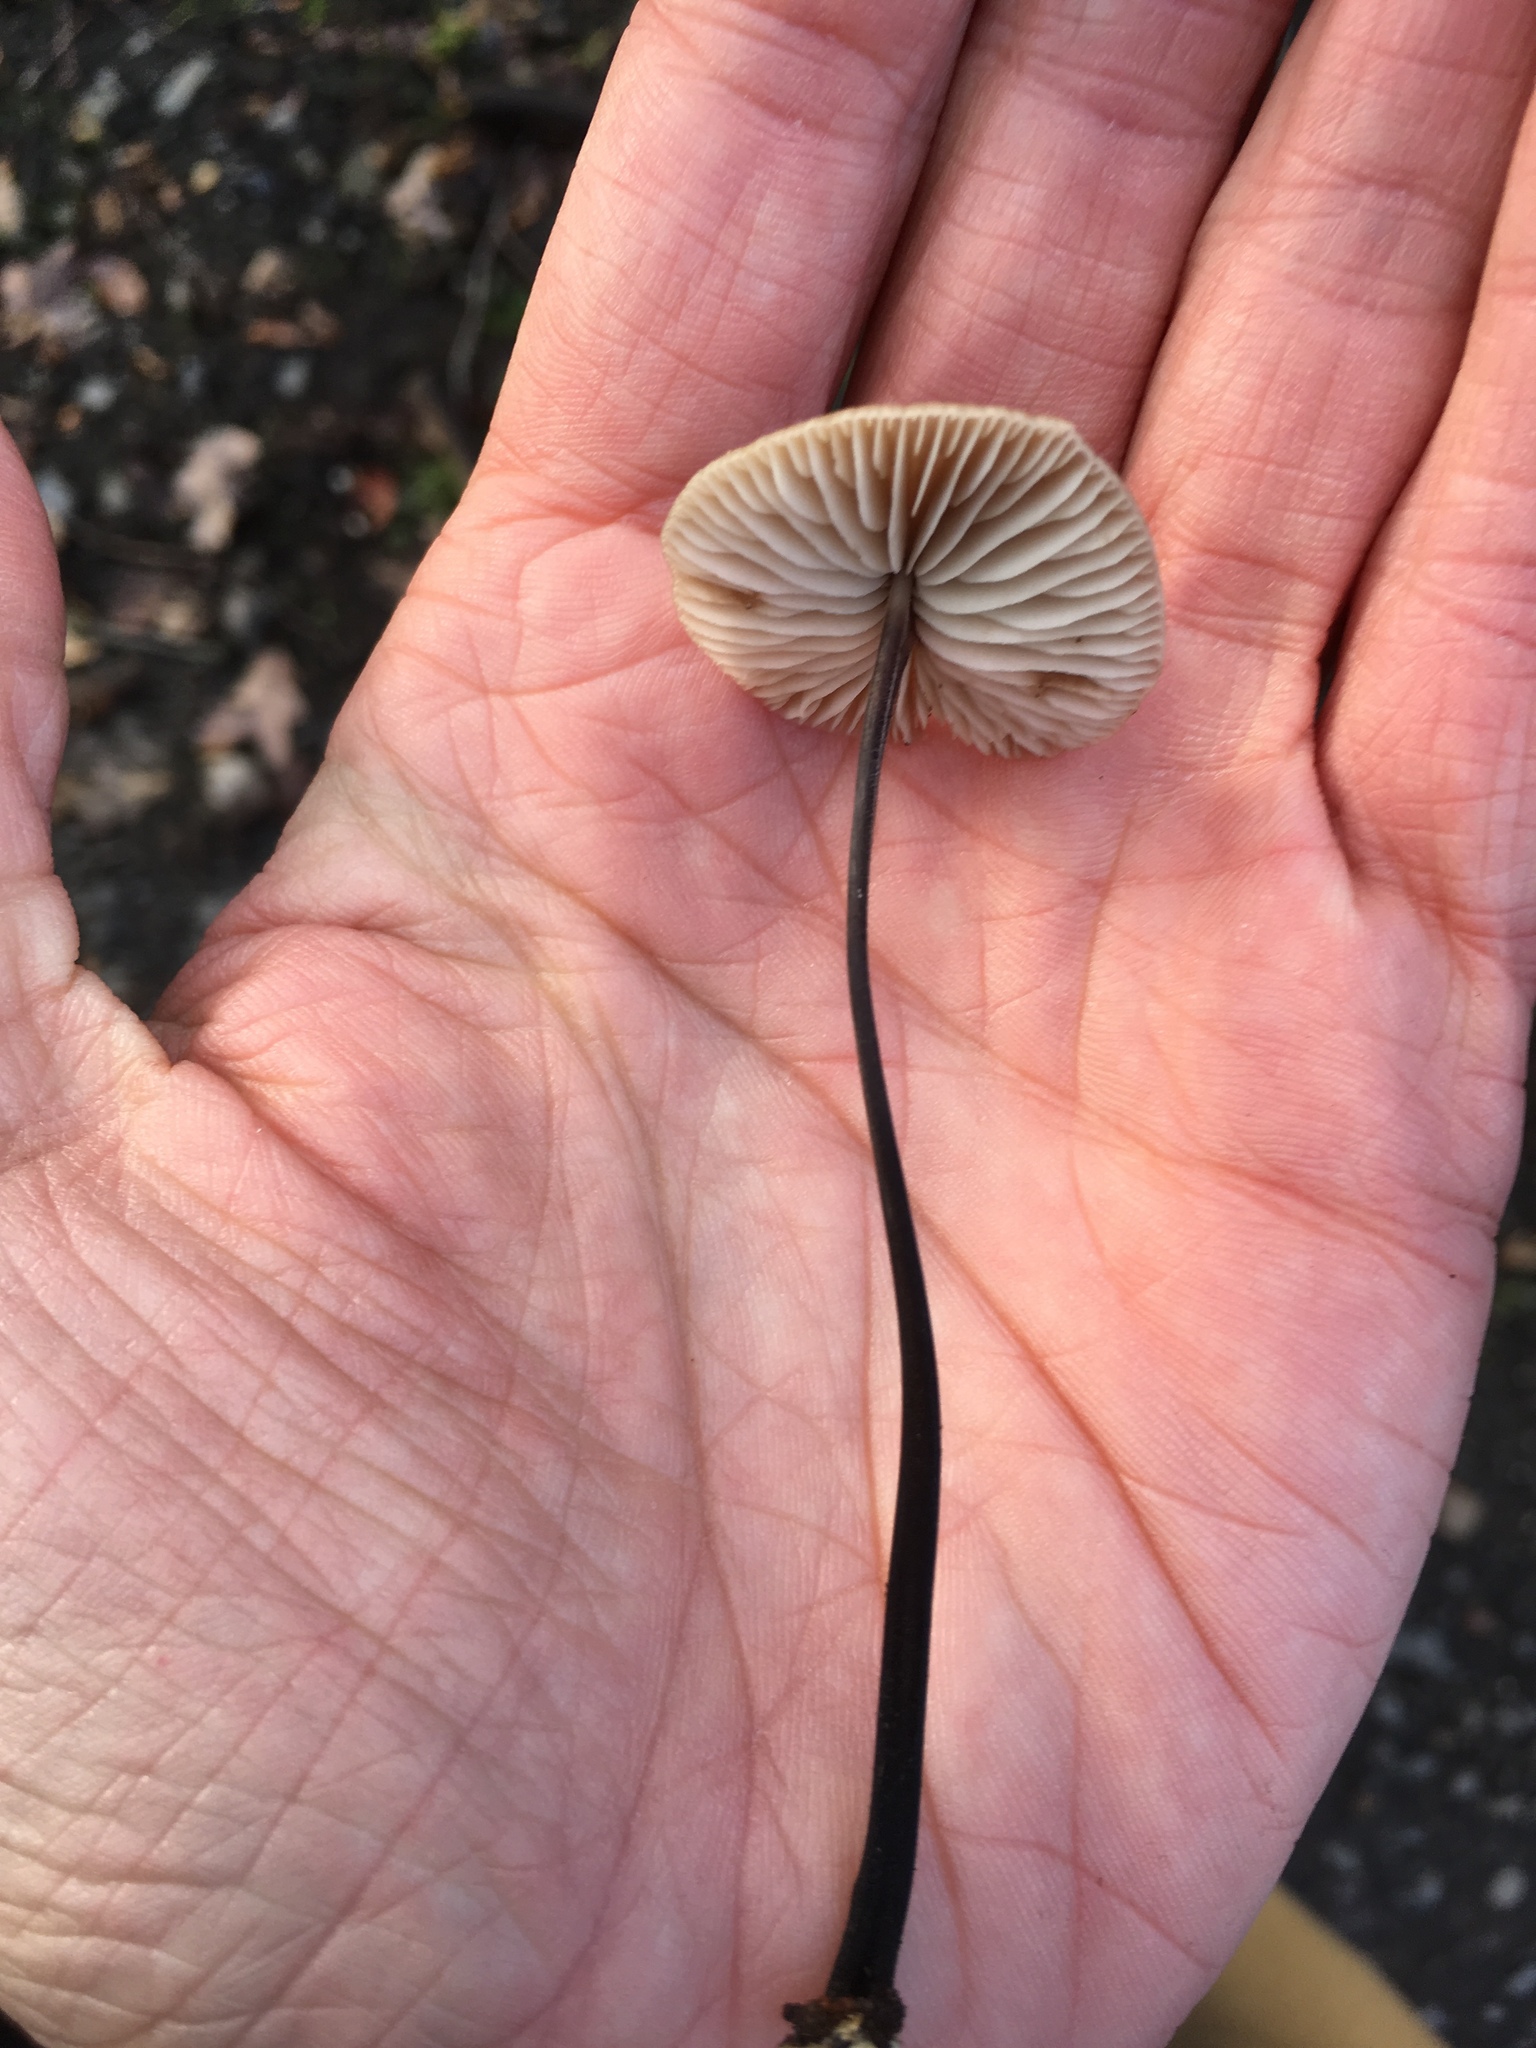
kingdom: Fungi
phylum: Basidiomycota
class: Agaricomycetes
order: Agaricales
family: Omphalotaceae
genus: Mycetinis
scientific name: Mycetinis alliaceus
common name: Garlic parachute
